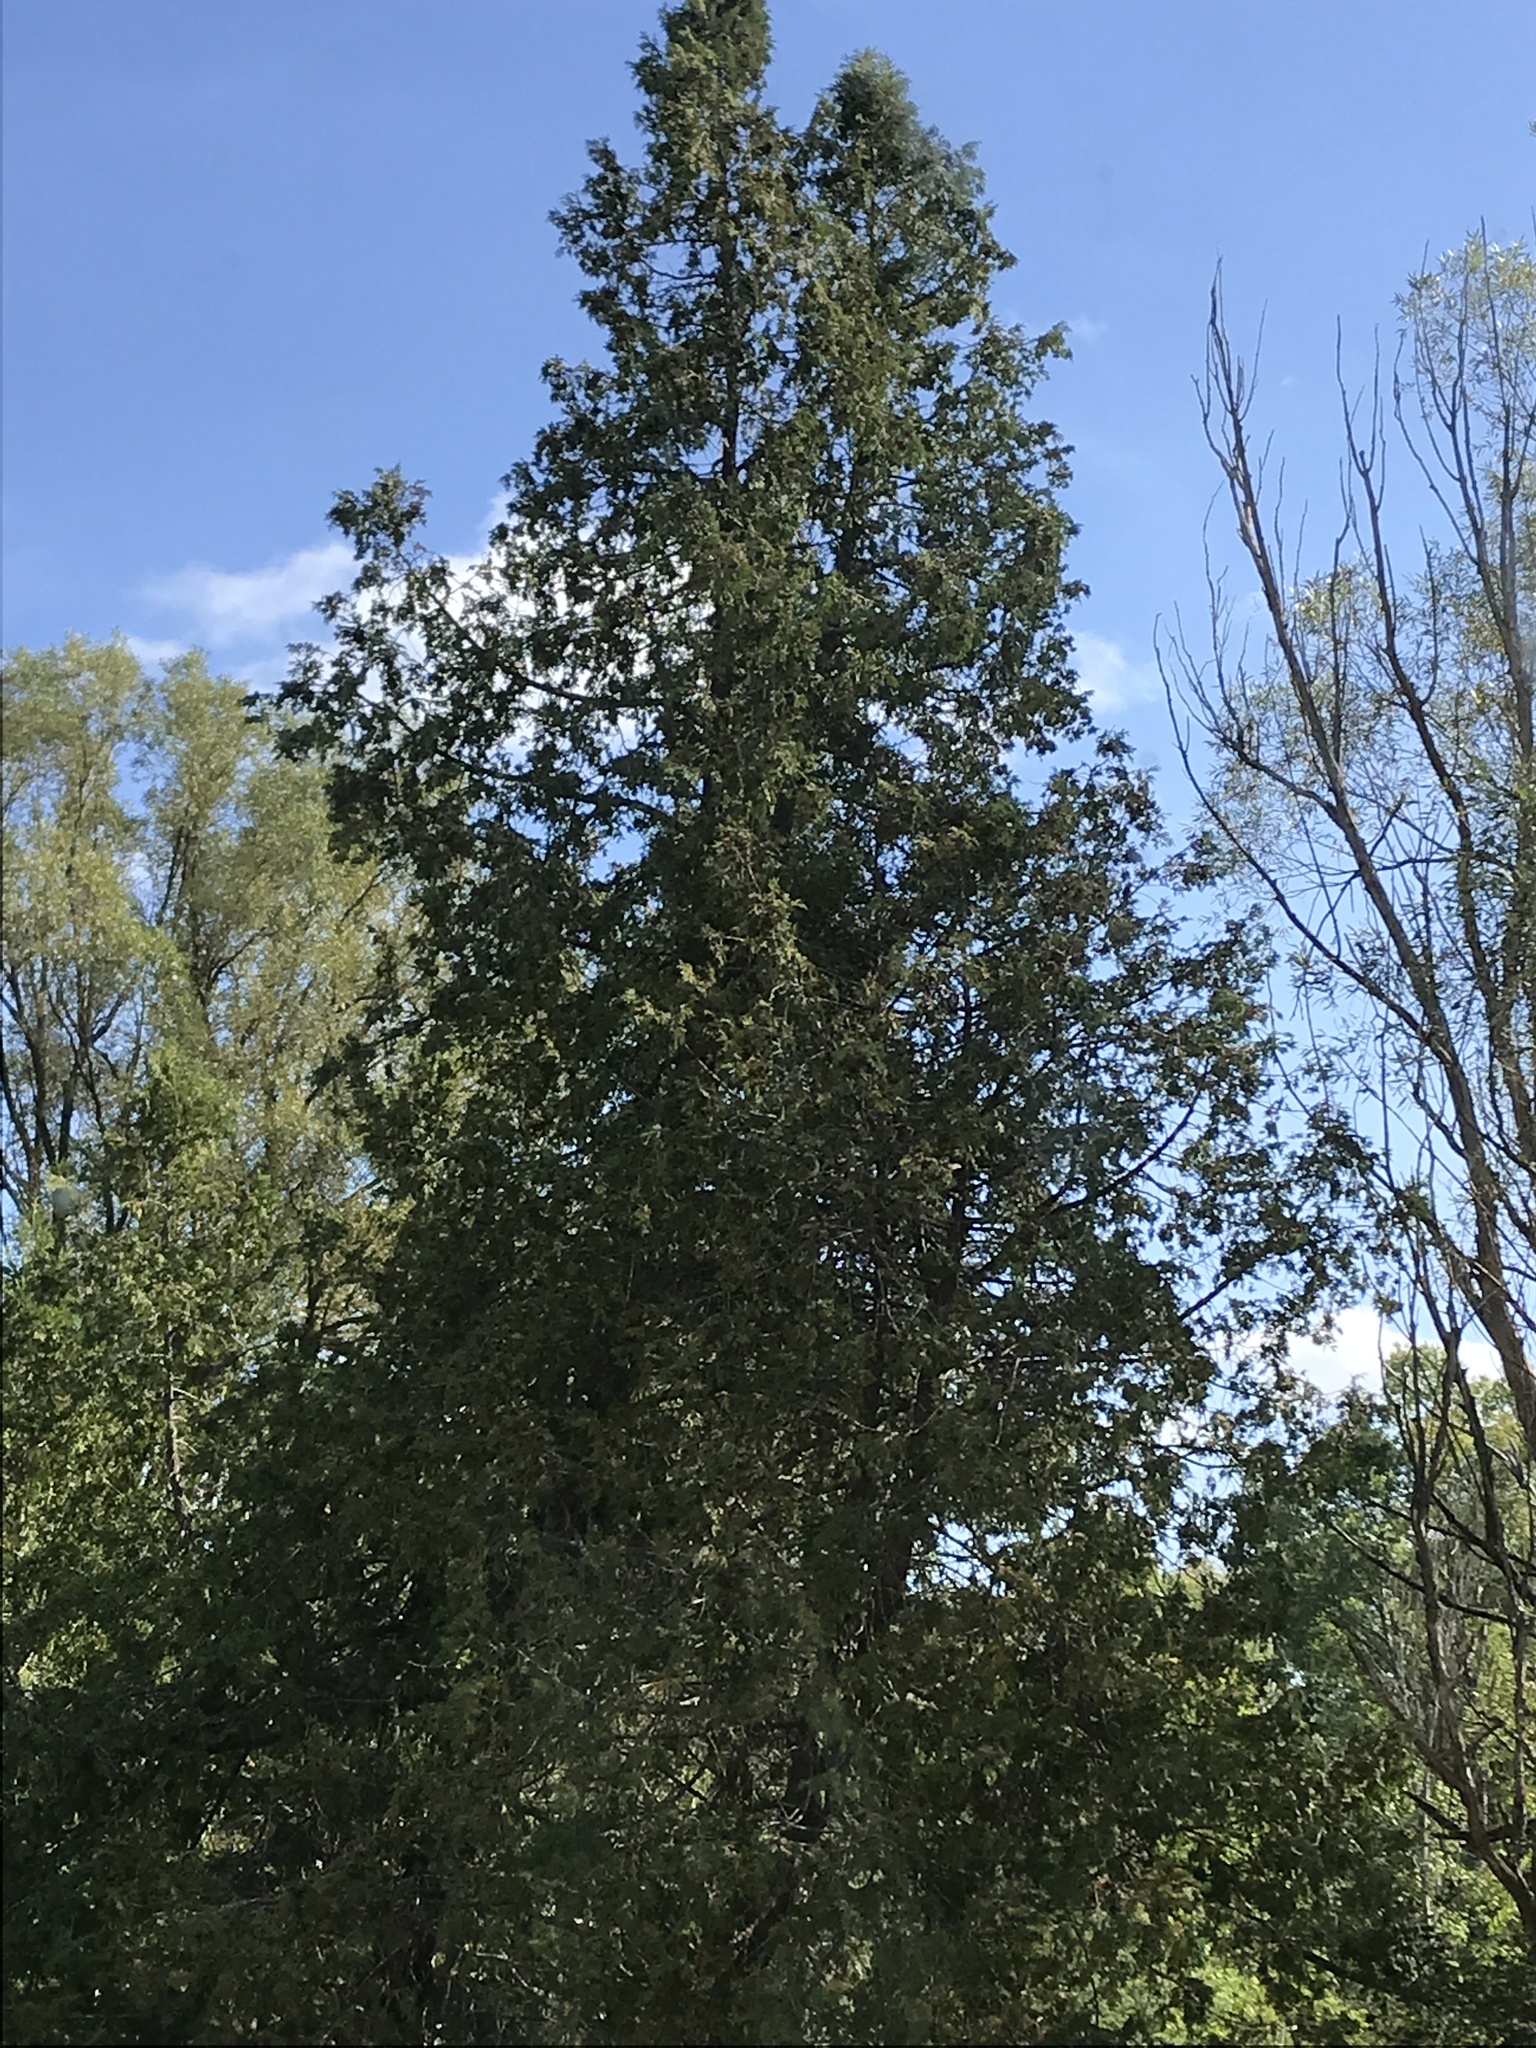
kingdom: Plantae
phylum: Tracheophyta
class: Pinopsida
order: Pinales
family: Cupressaceae
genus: Thuja
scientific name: Thuja occidentalis
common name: Northern white-cedar
